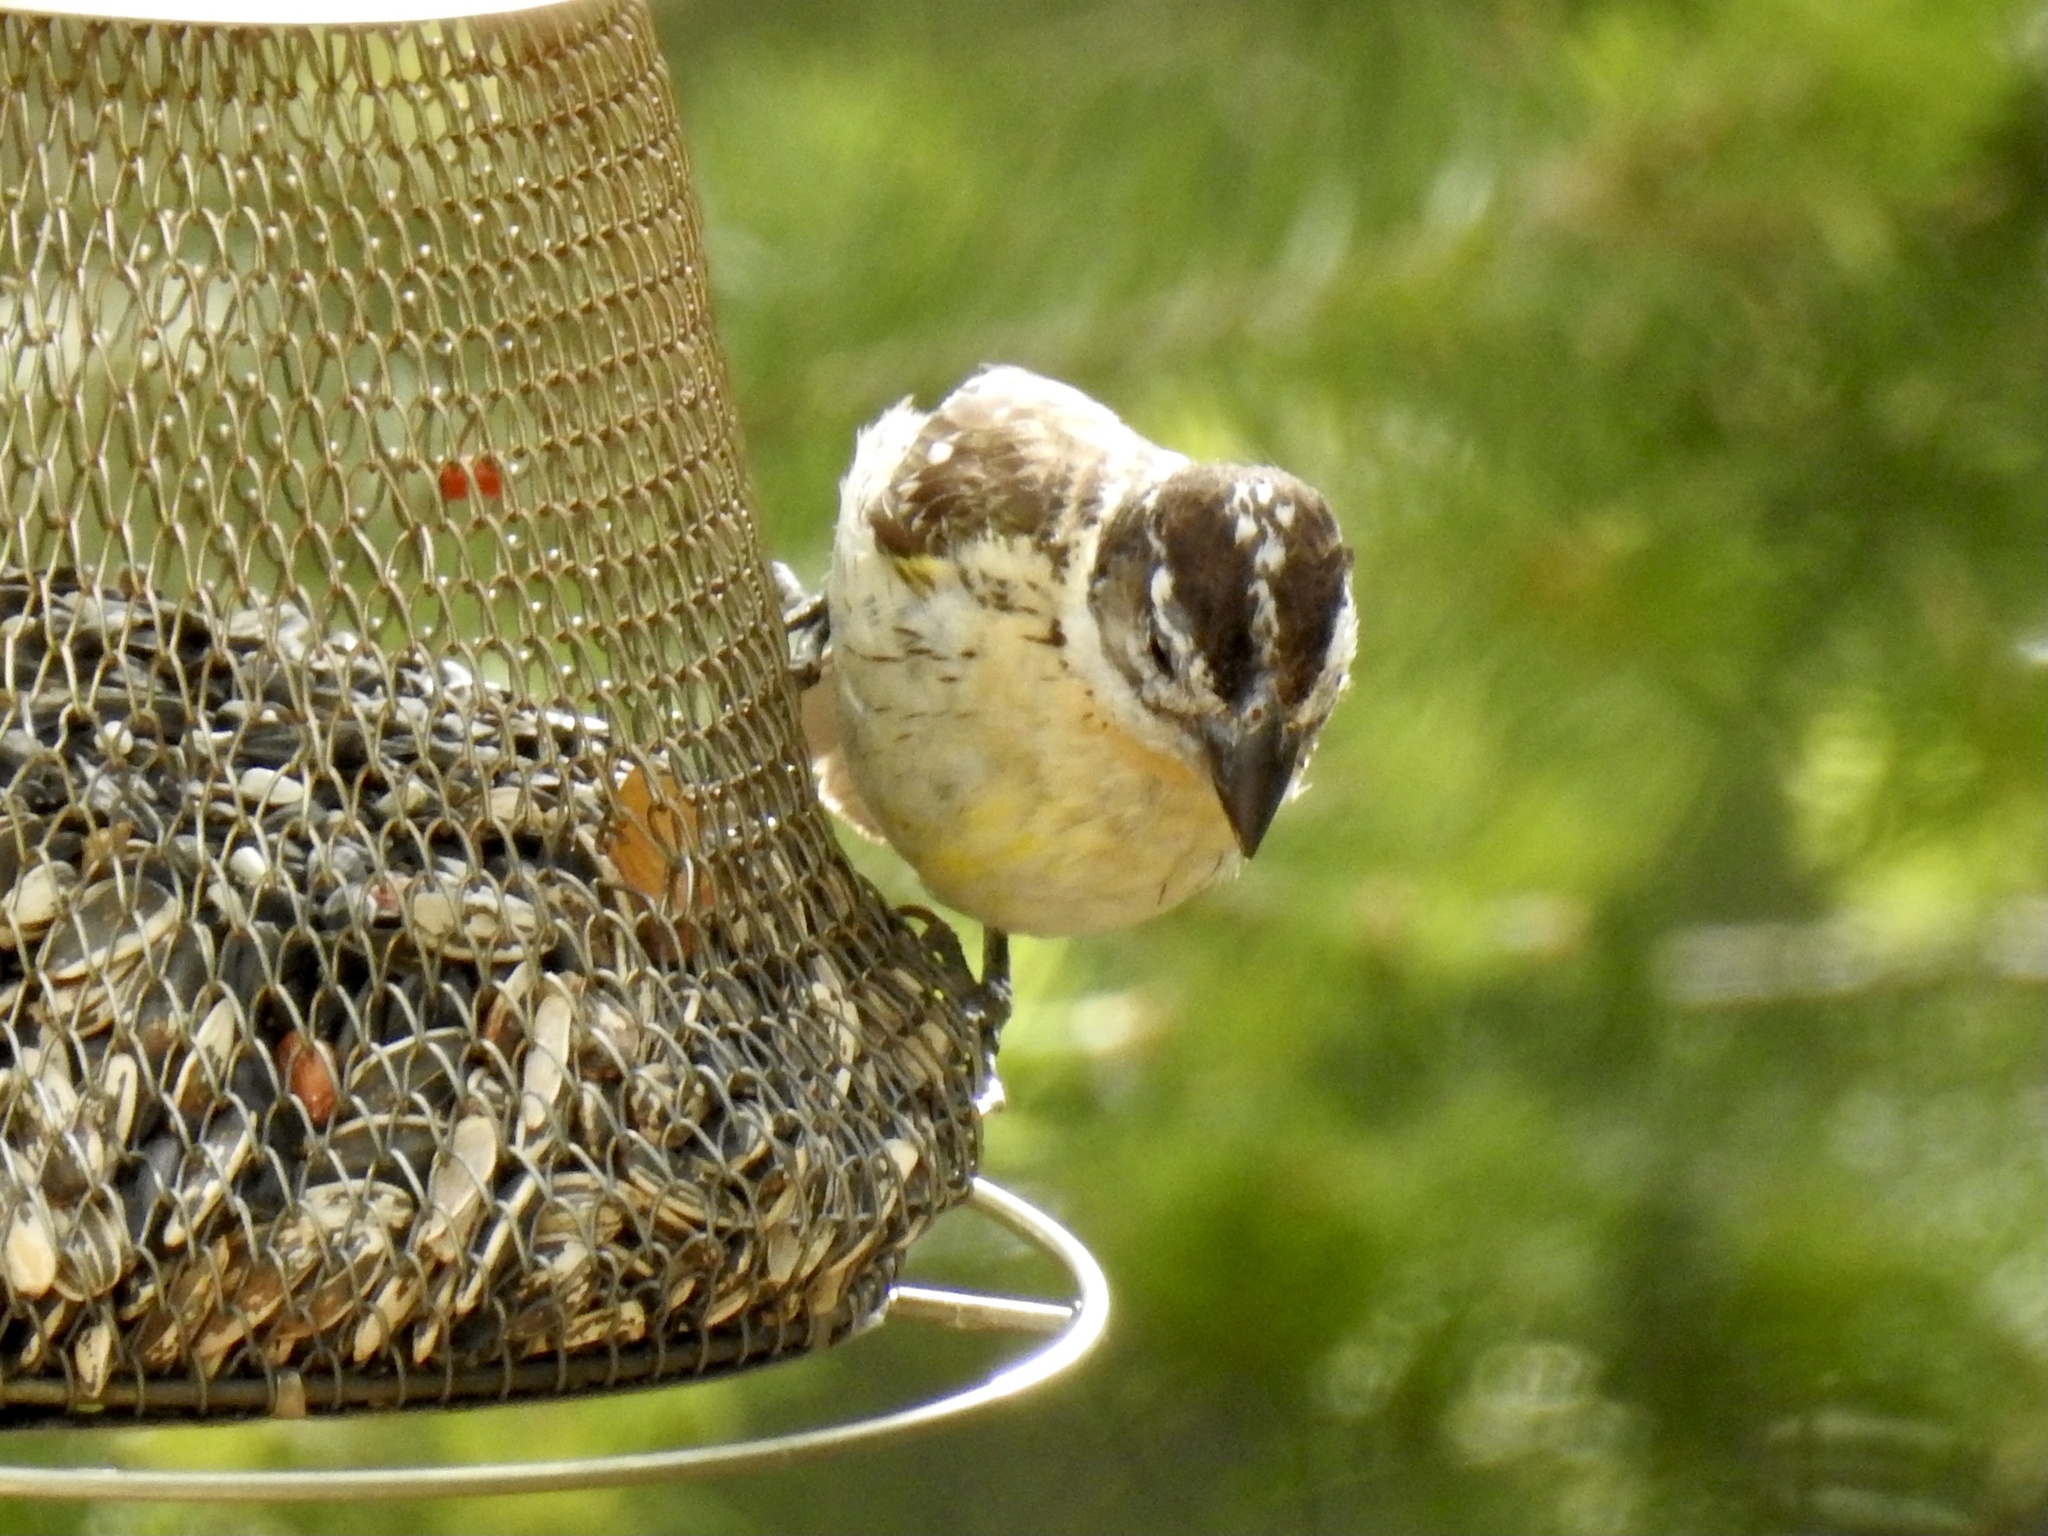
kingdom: Animalia
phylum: Chordata
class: Aves
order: Passeriformes
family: Cardinalidae
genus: Pheucticus
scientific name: Pheucticus melanocephalus
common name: Black-headed grosbeak
